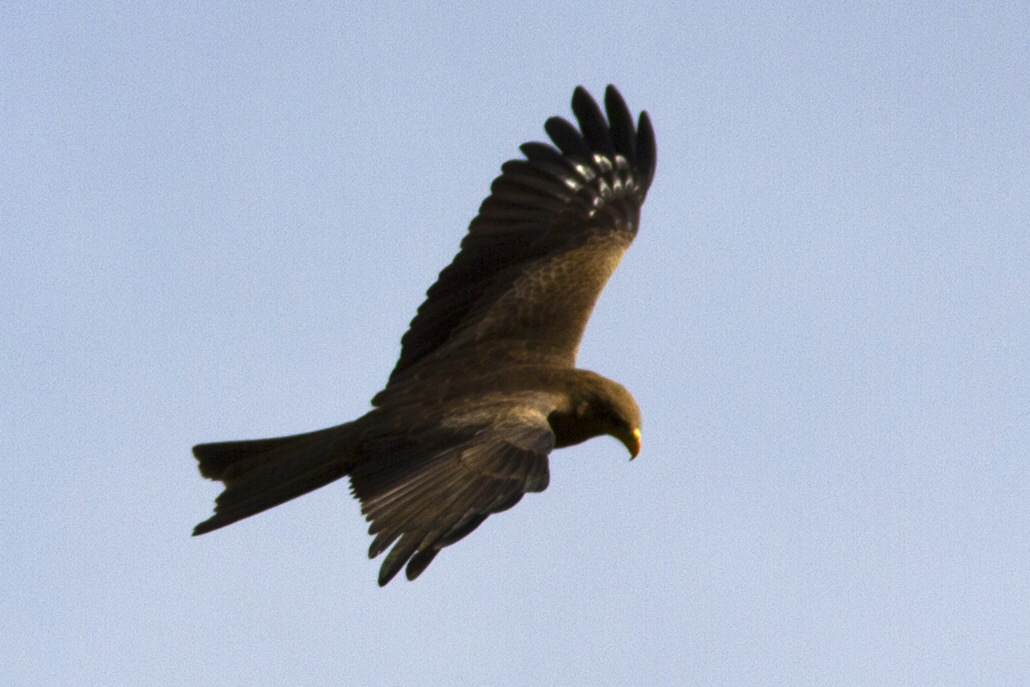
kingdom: Animalia
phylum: Chordata
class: Aves
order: Accipitriformes
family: Accipitridae
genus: Milvus
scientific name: Milvus migrans
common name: Black kite
